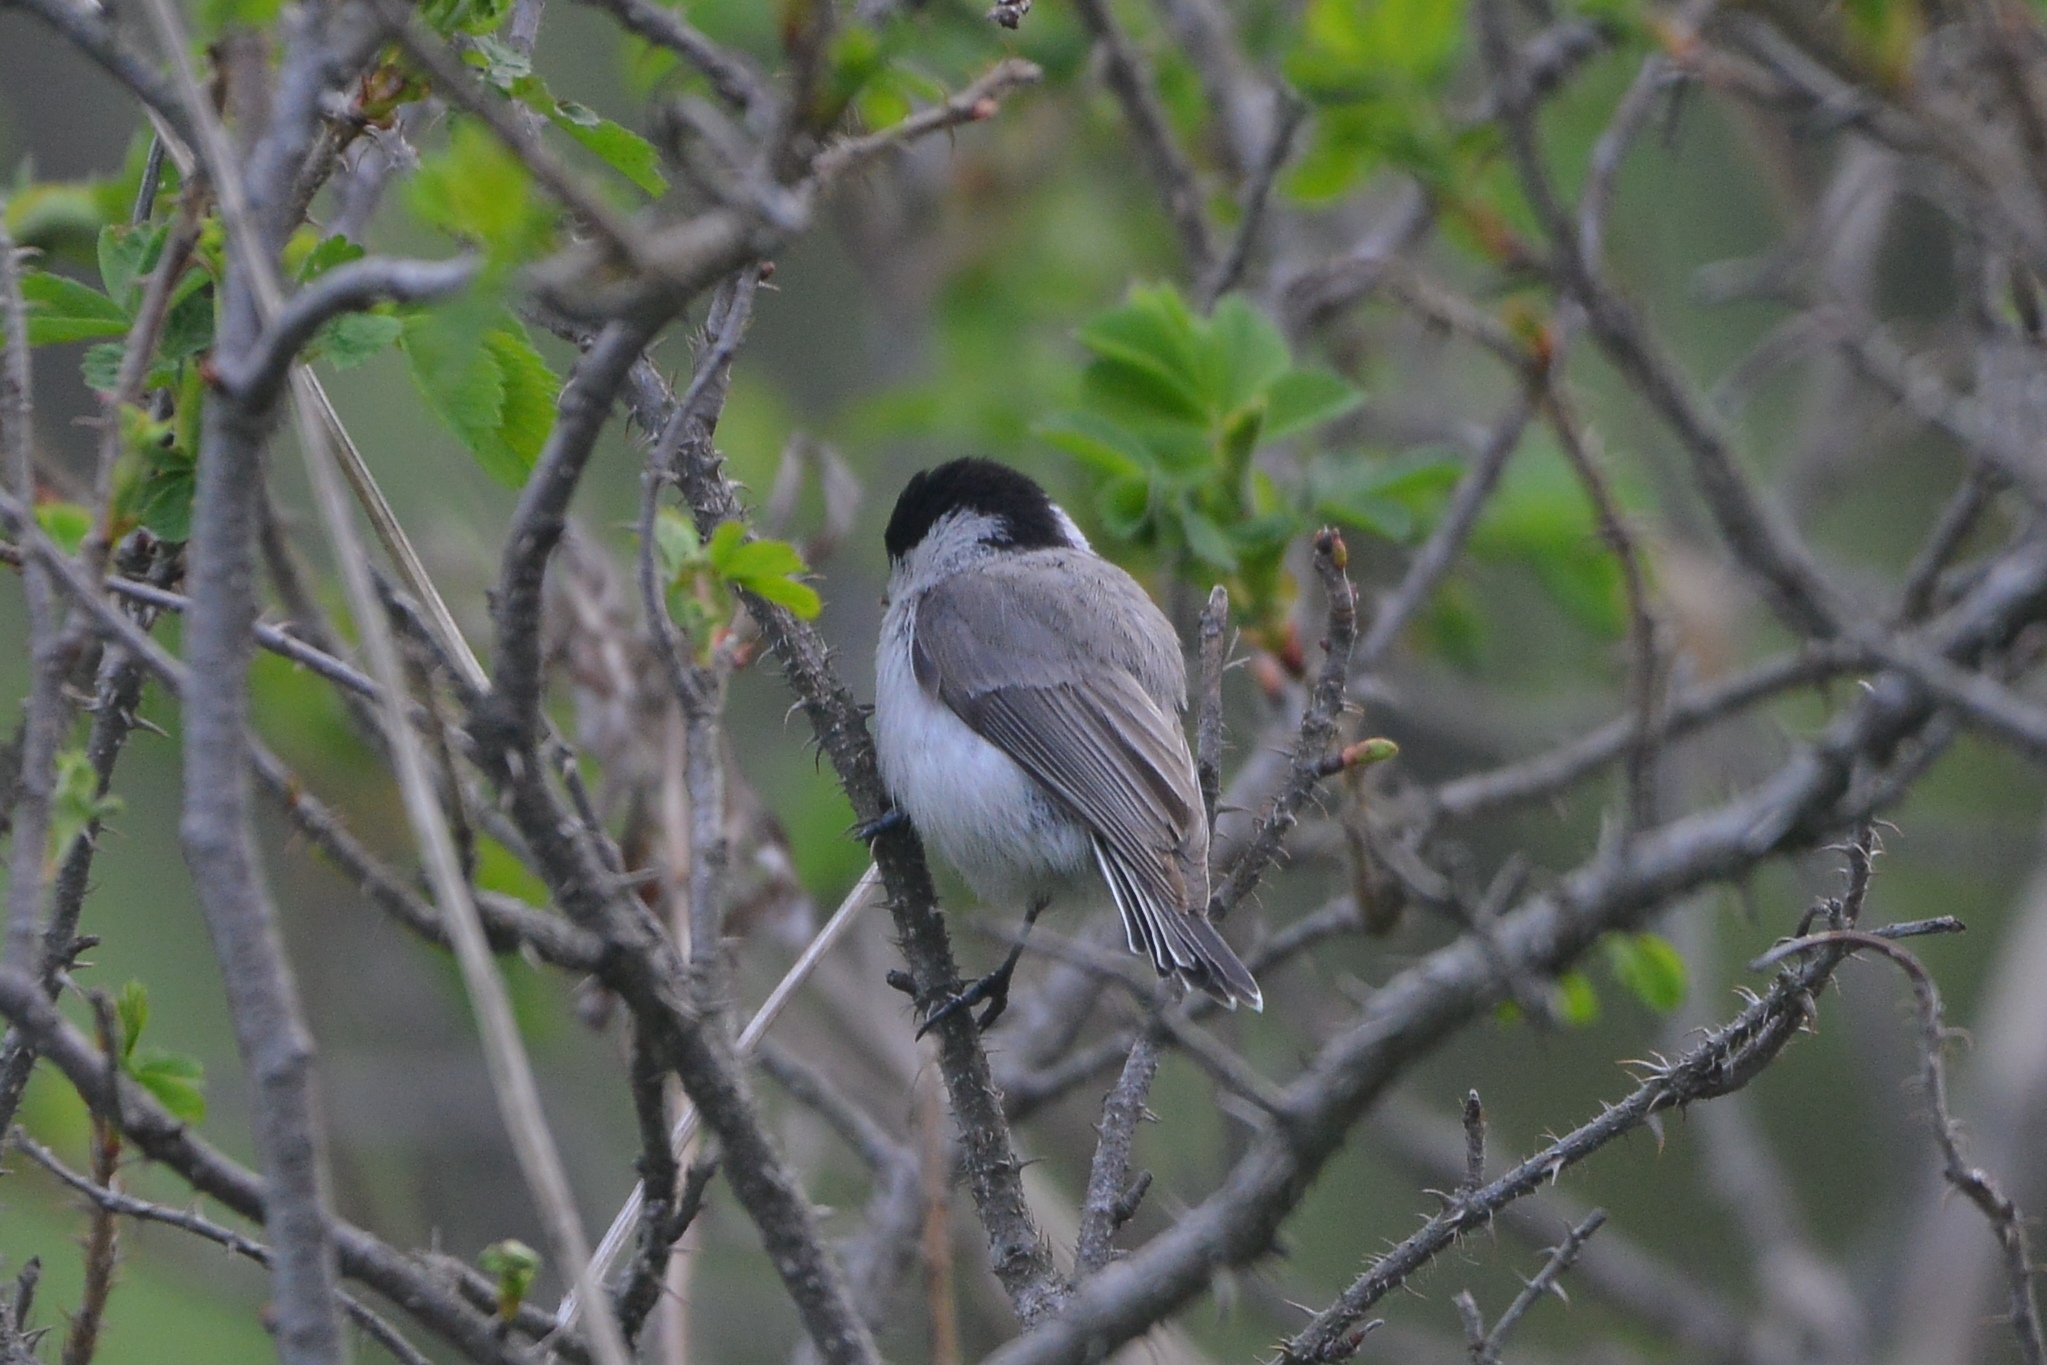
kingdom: Animalia
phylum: Chordata
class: Aves
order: Passeriformes
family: Paridae
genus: Poecile
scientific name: Poecile palustris
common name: Marsh tit
